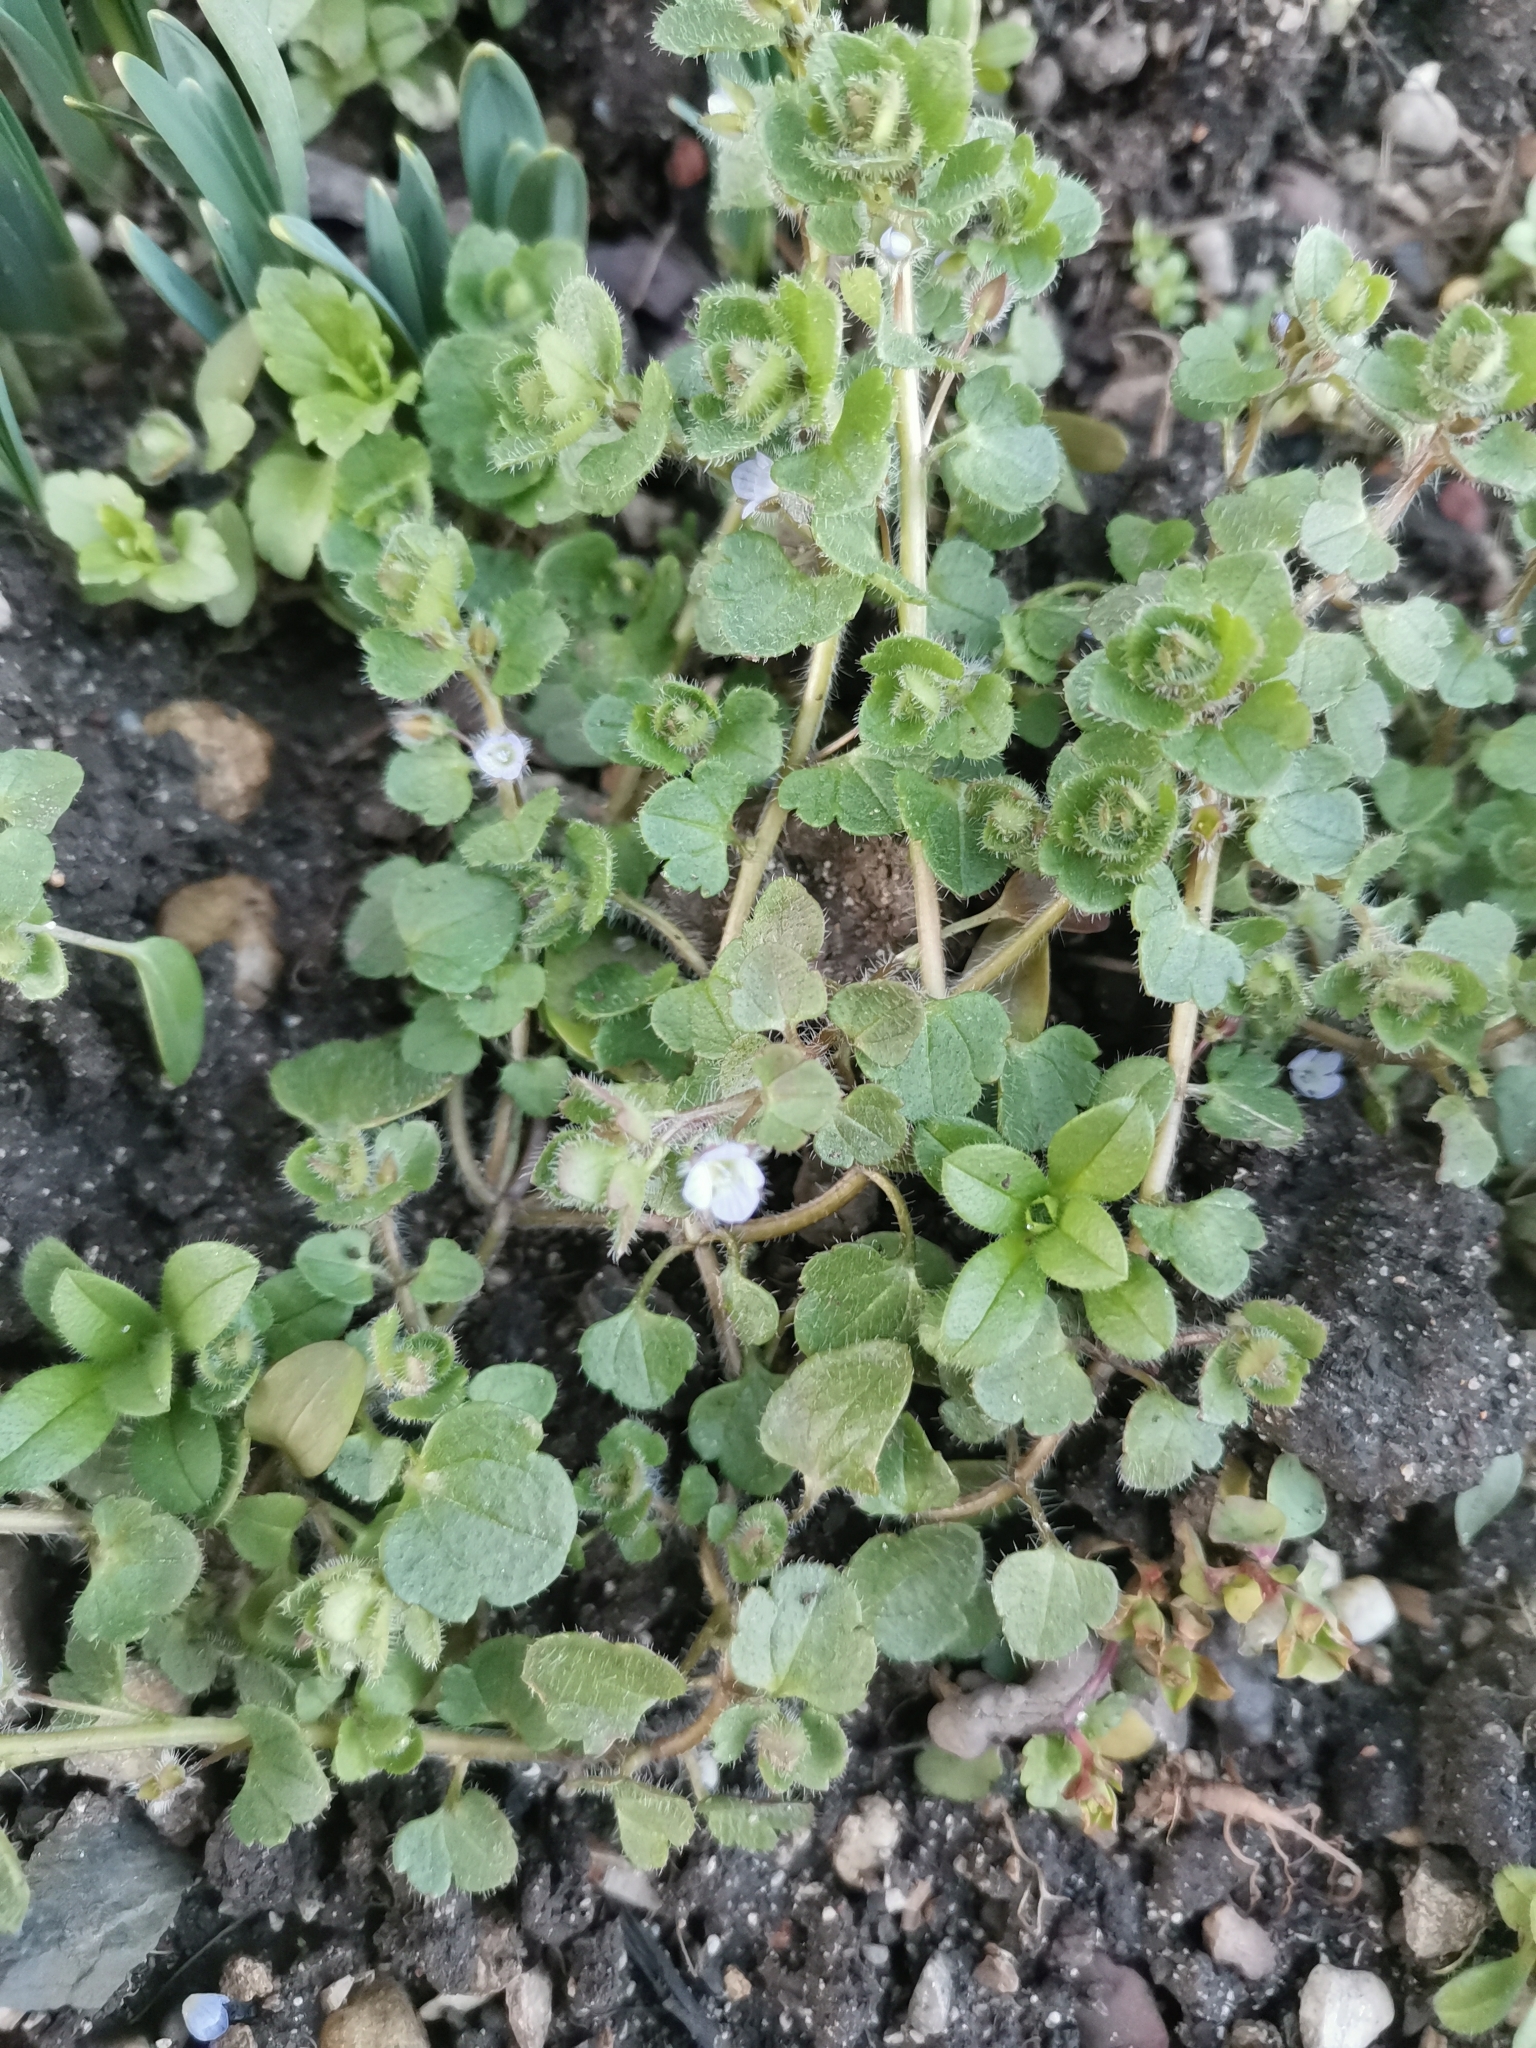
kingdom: Plantae
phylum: Tracheophyta
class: Magnoliopsida
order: Lamiales
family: Plantaginaceae
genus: Veronica
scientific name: Veronica hederifolia
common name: Ivy-leaved speedwell
